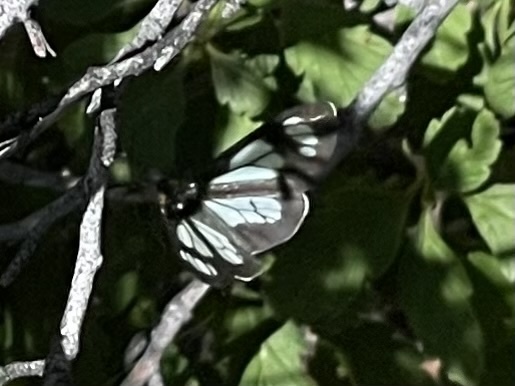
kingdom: Animalia
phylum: Arthropoda
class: Insecta
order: Lepidoptera
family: Erebidae
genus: Gnophaela
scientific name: Gnophaela vermiculata
